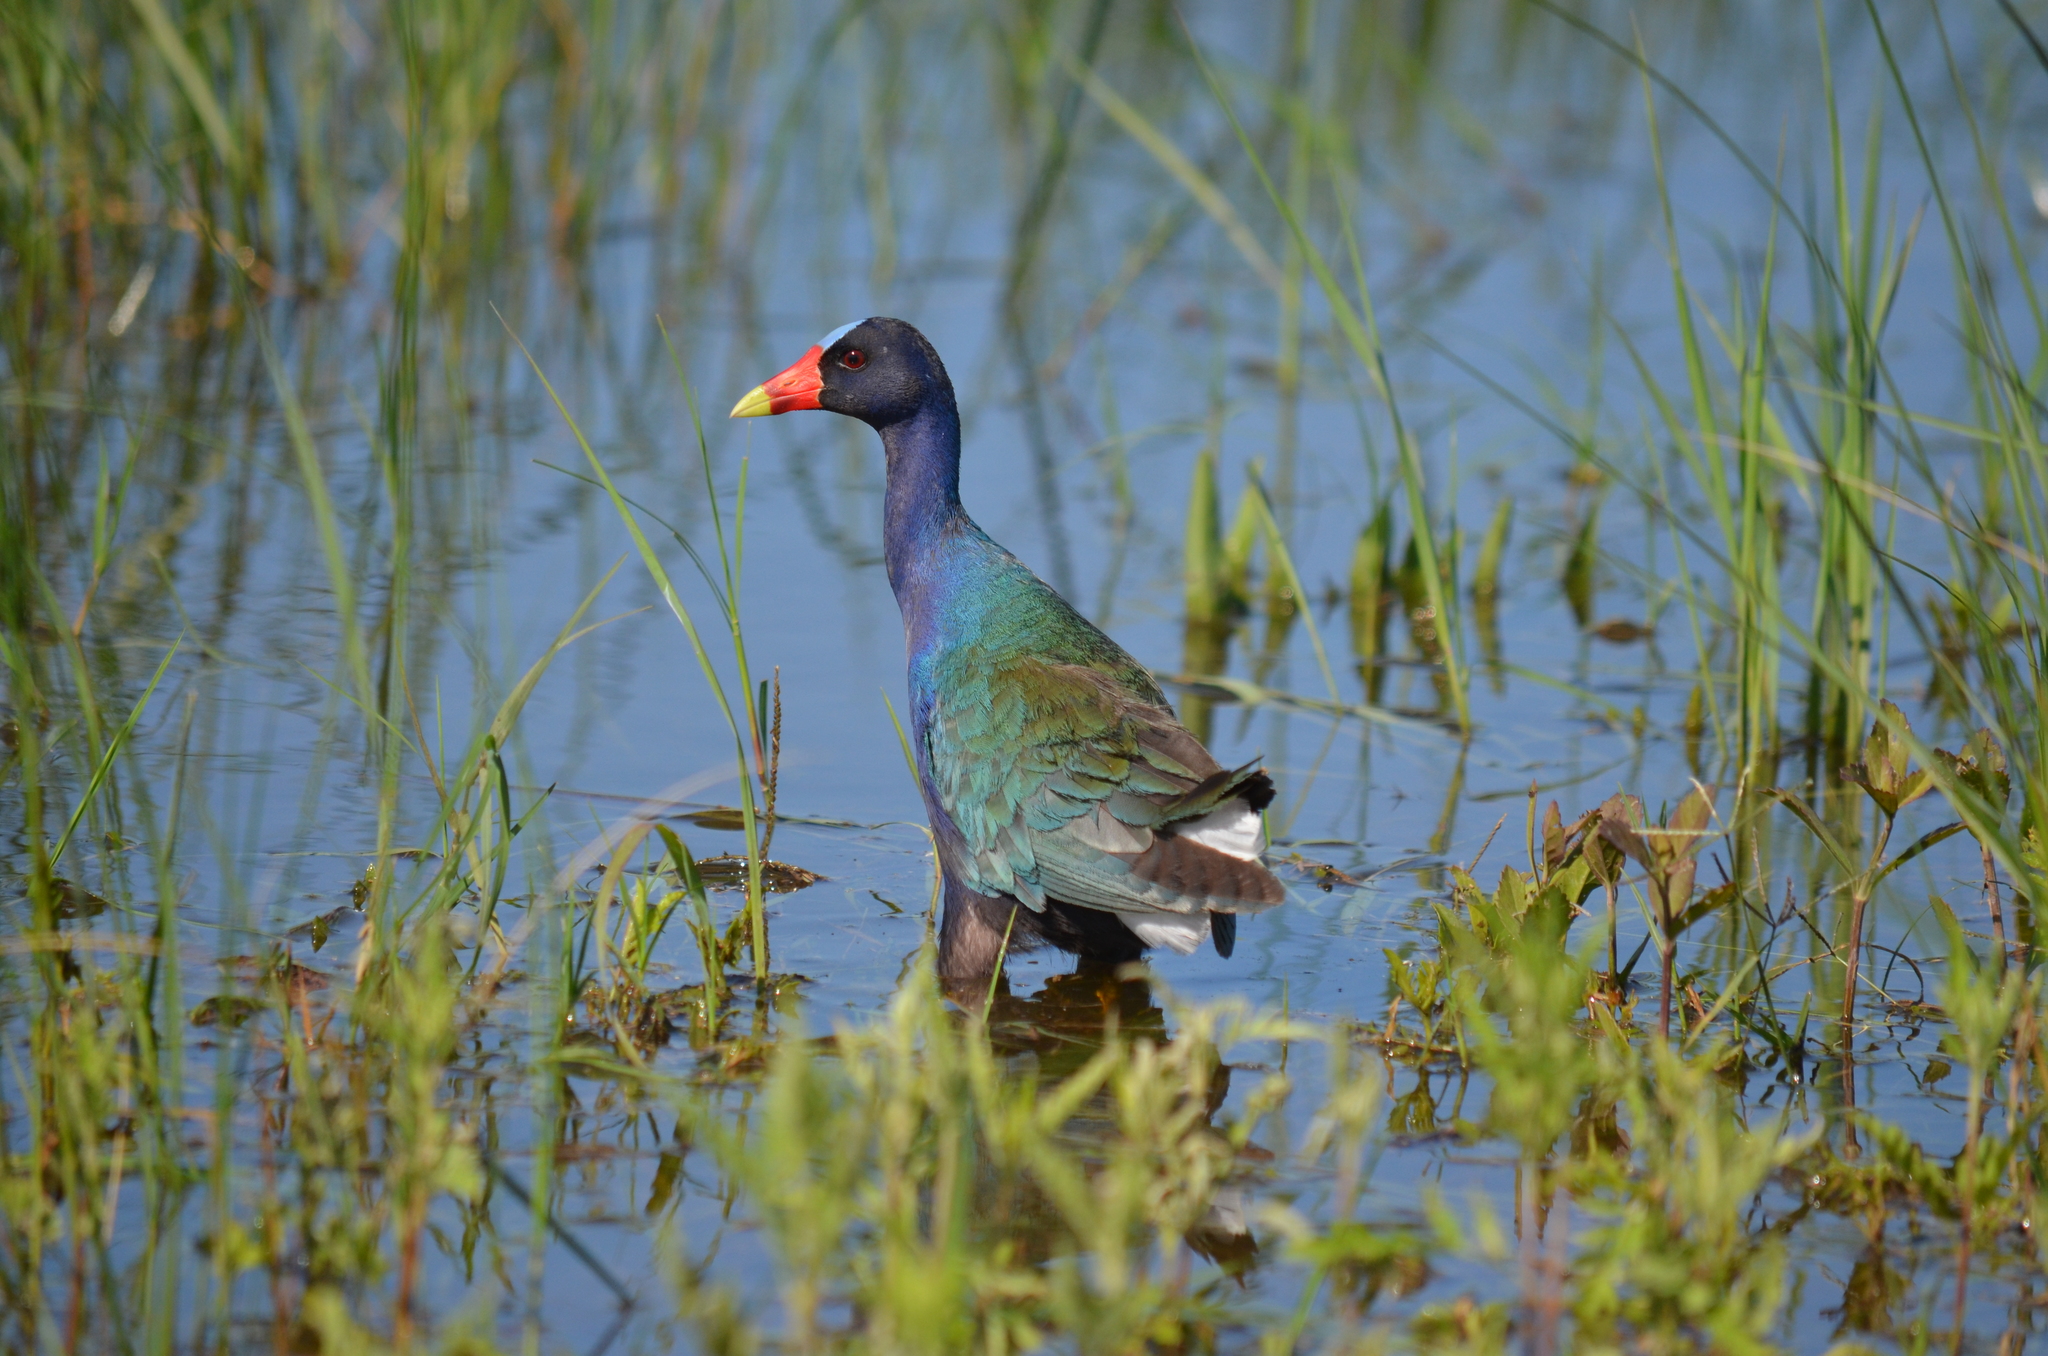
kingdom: Animalia
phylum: Chordata
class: Aves
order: Gruiformes
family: Rallidae
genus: Porphyrio
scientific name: Porphyrio martinica
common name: Purple gallinule
